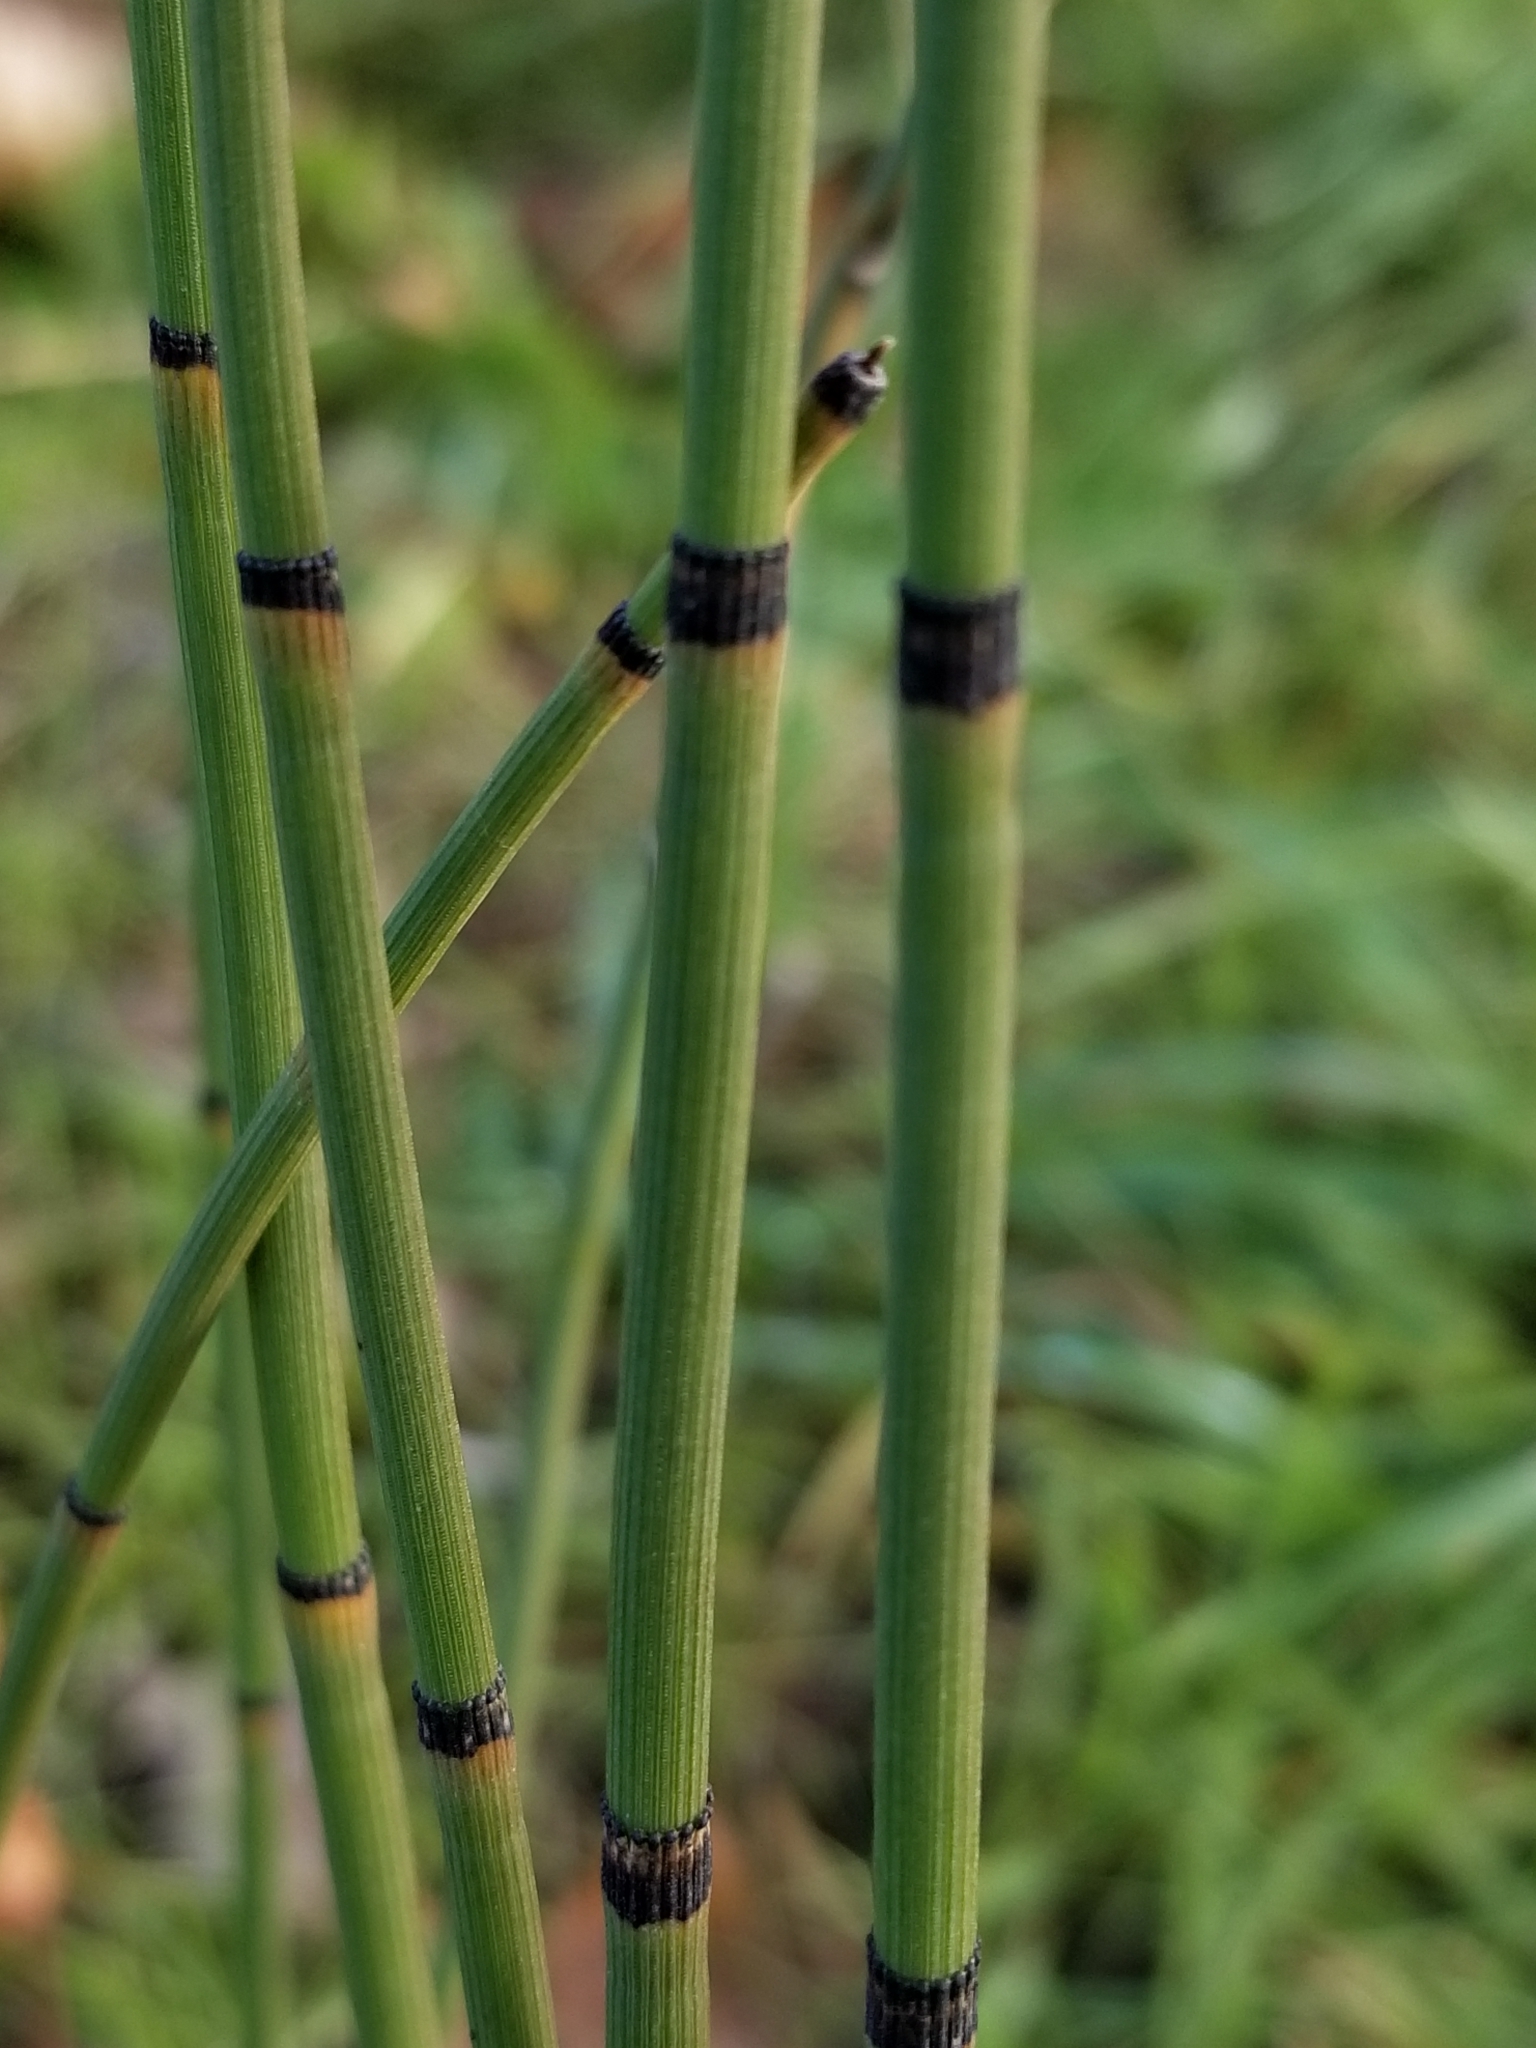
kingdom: Plantae
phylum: Tracheophyta
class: Polypodiopsida
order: Equisetales
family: Equisetaceae
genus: Equisetum
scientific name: Equisetum hyemale
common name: Rough horsetail
